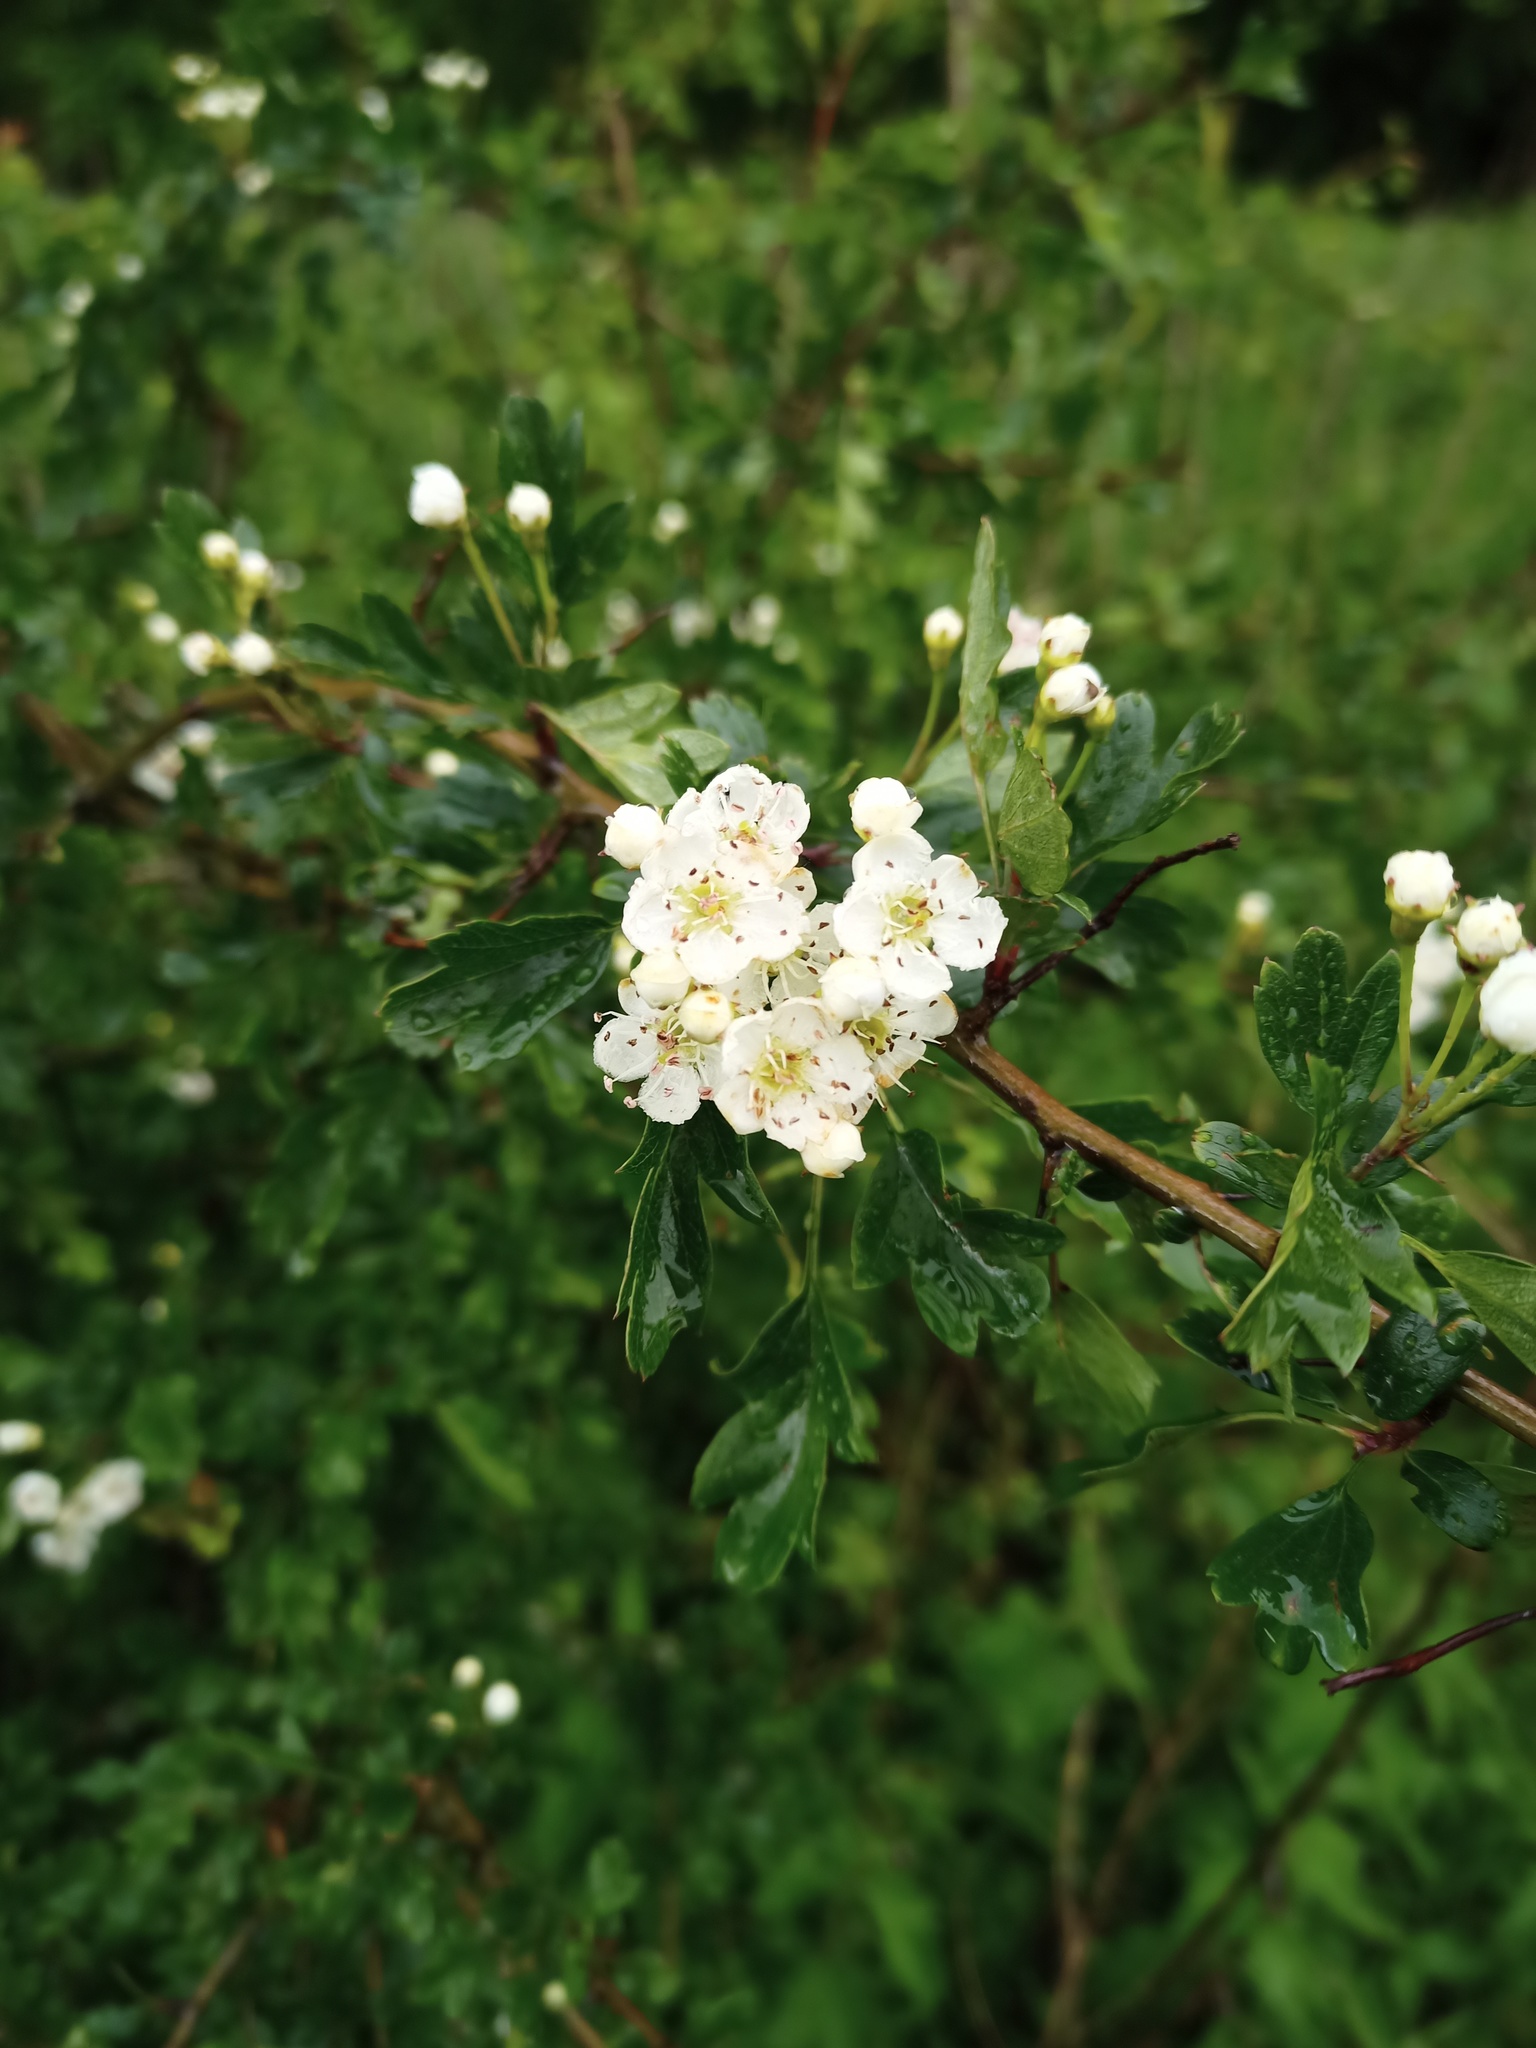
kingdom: Plantae
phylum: Tracheophyta
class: Magnoliopsida
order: Rosales
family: Rosaceae
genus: Crataegus
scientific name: Crataegus monogyna
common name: Hawthorn
